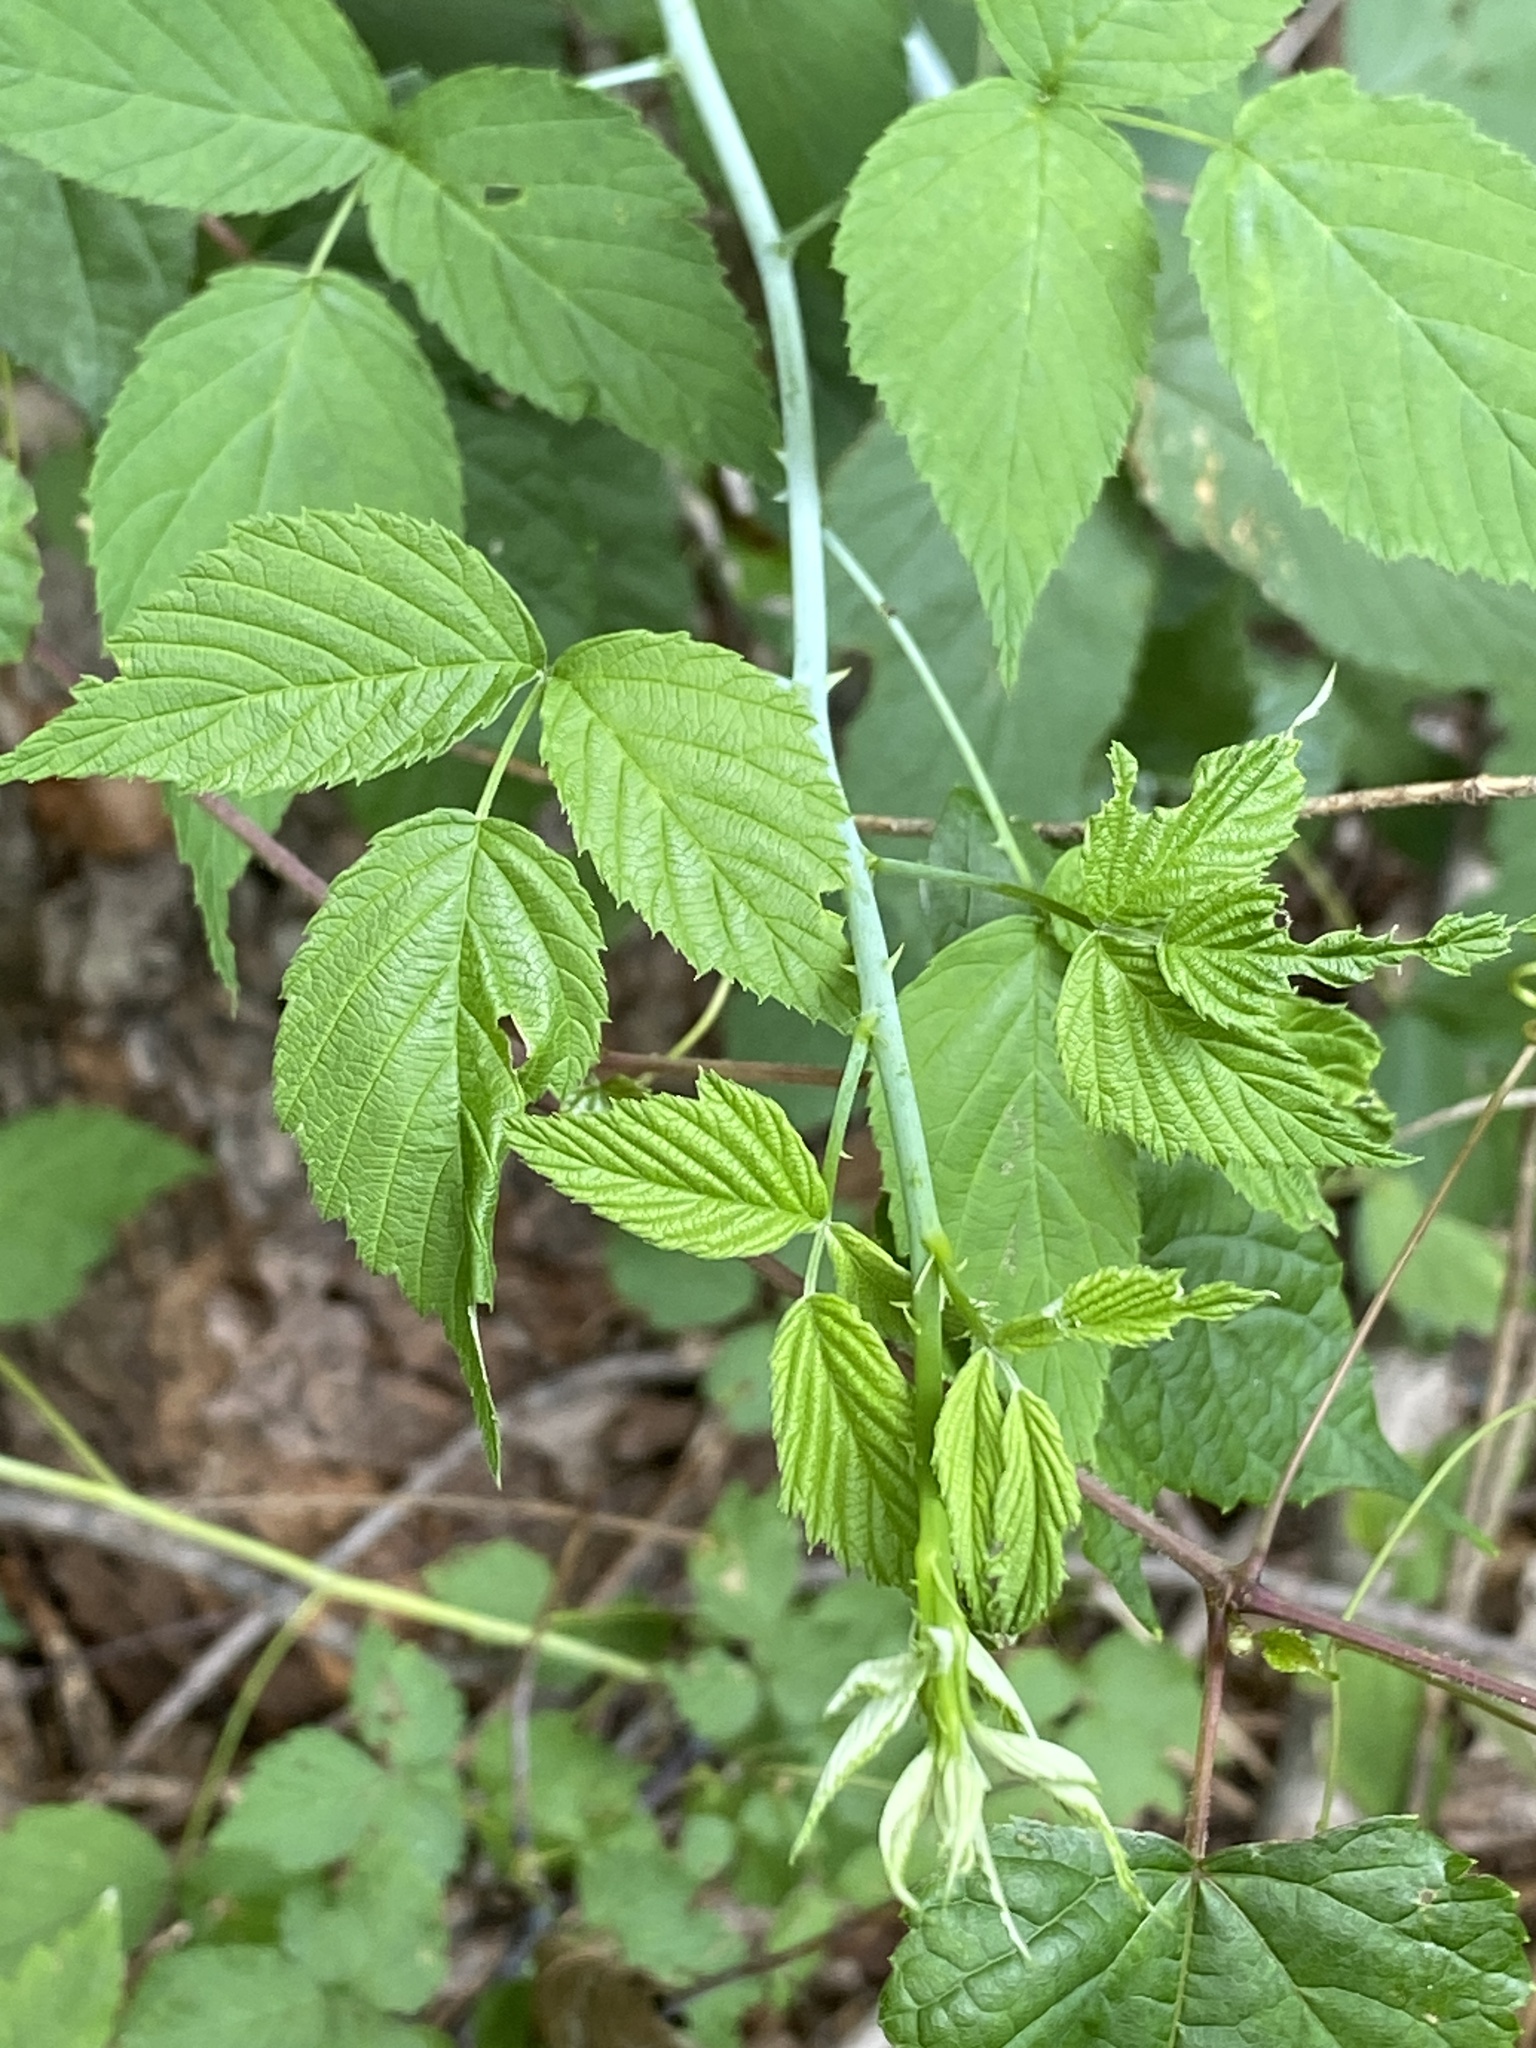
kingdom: Plantae
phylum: Tracheophyta
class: Magnoliopsida
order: Rosales
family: Rosaceae
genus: Rubus
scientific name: Rubus occidentalis
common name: Black raspberry
